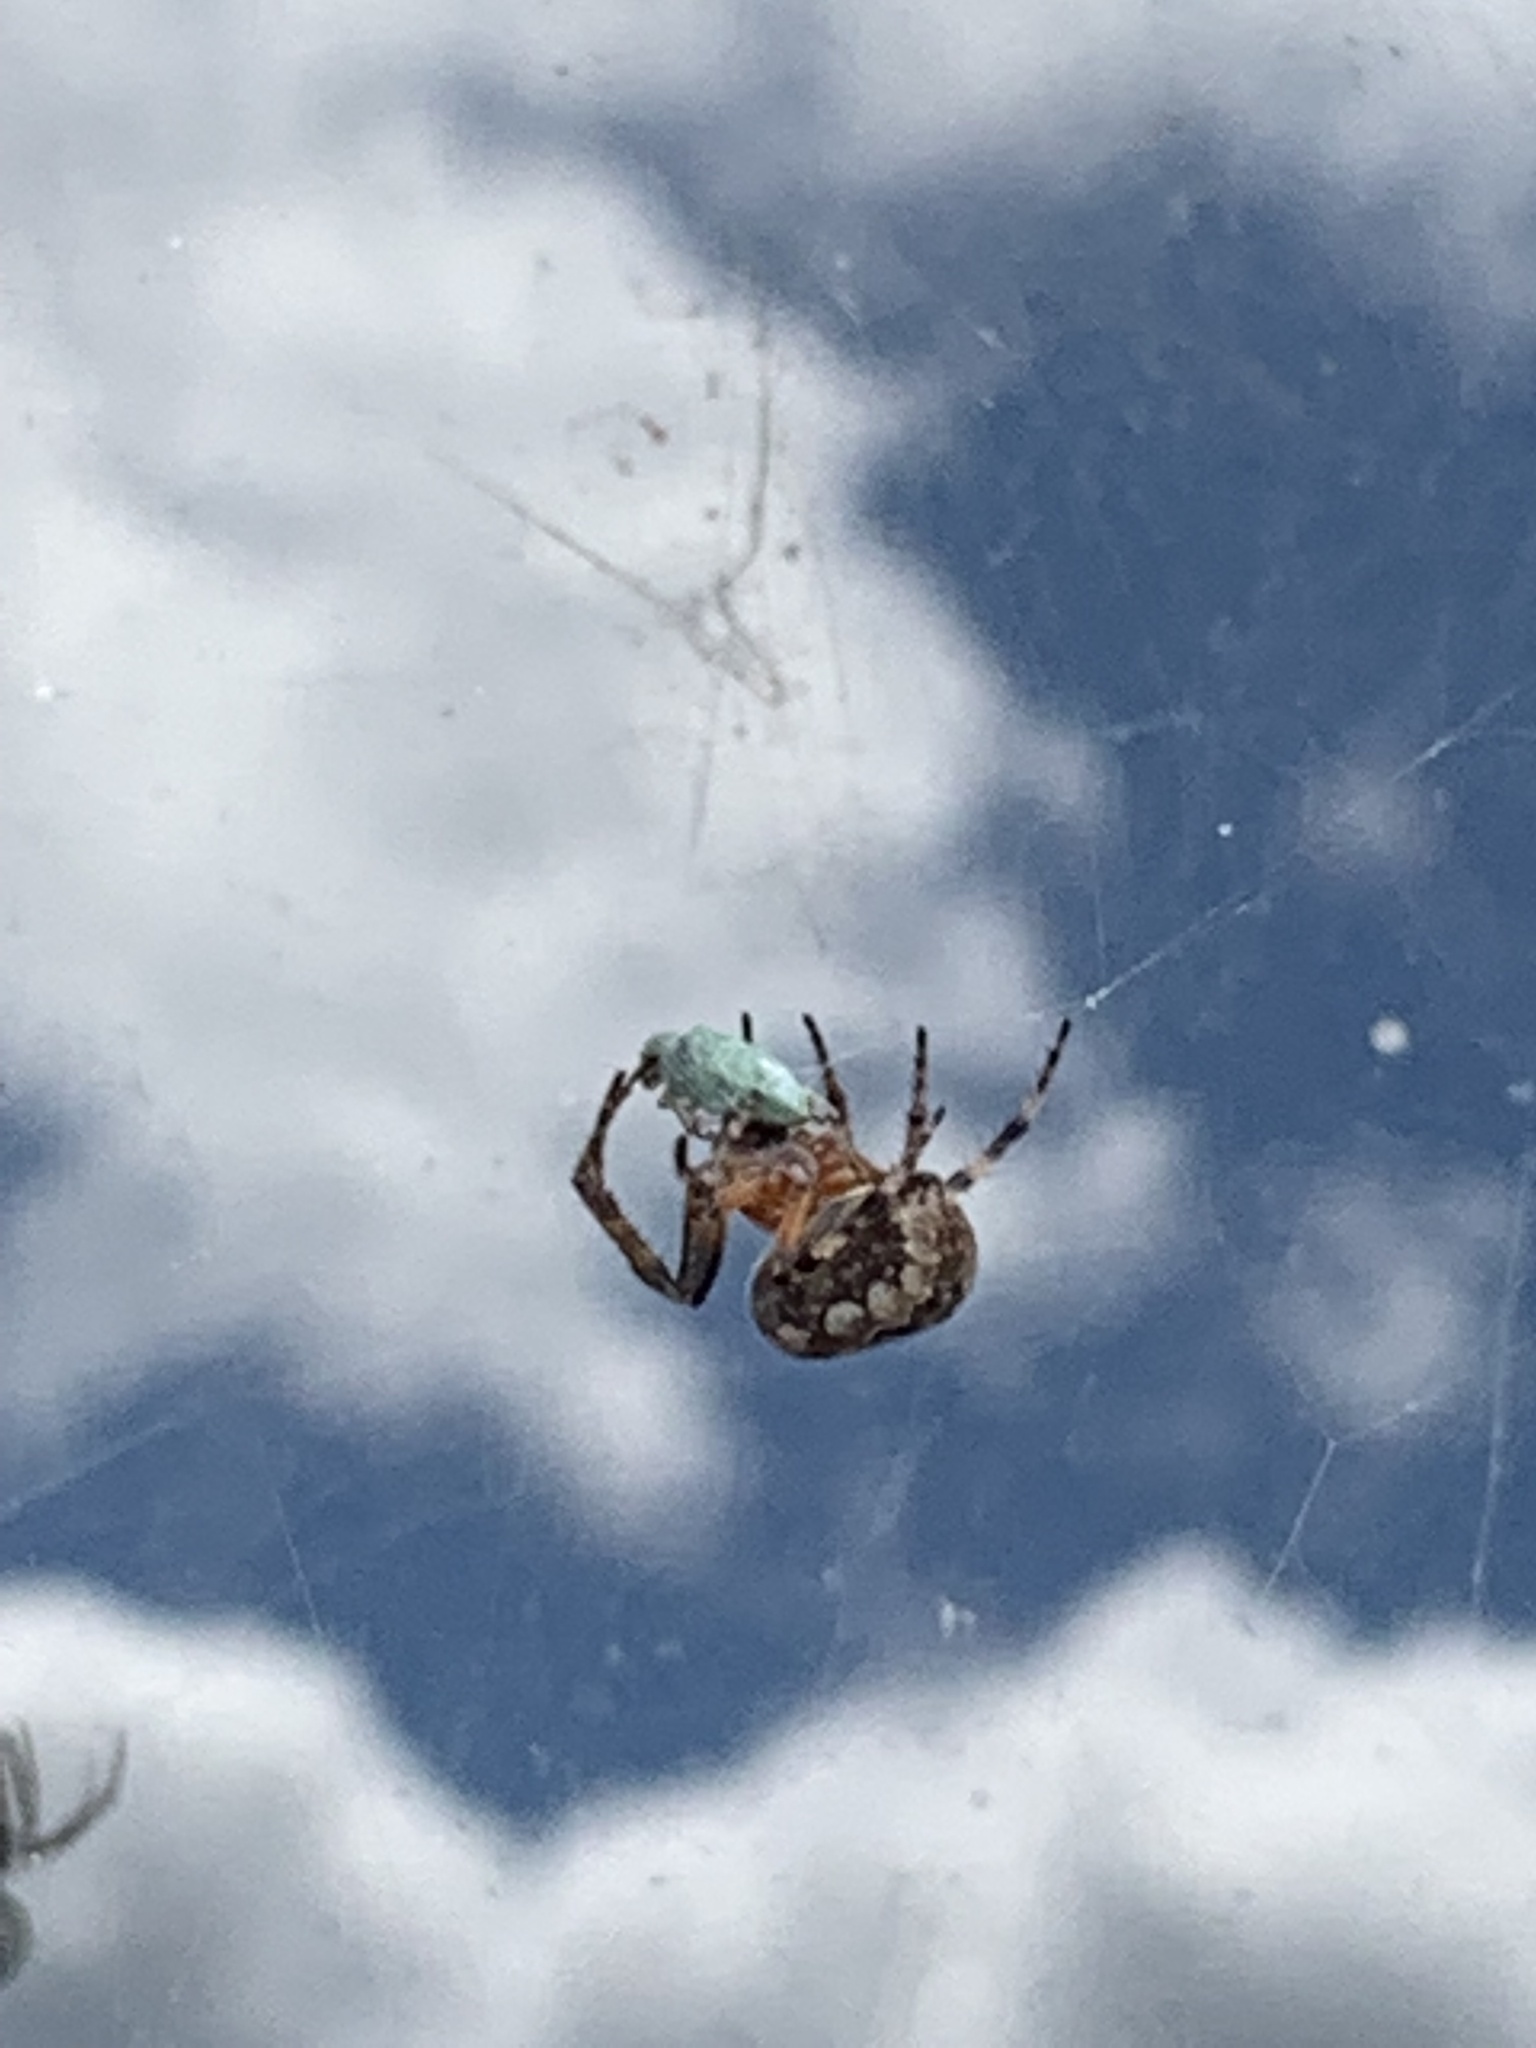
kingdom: Animalia
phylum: Arthropoda
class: Arachnida
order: Araneae
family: Araneidae
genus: Larinioides
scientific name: Larinioides patagiatus
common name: Ornamental orbweaver
